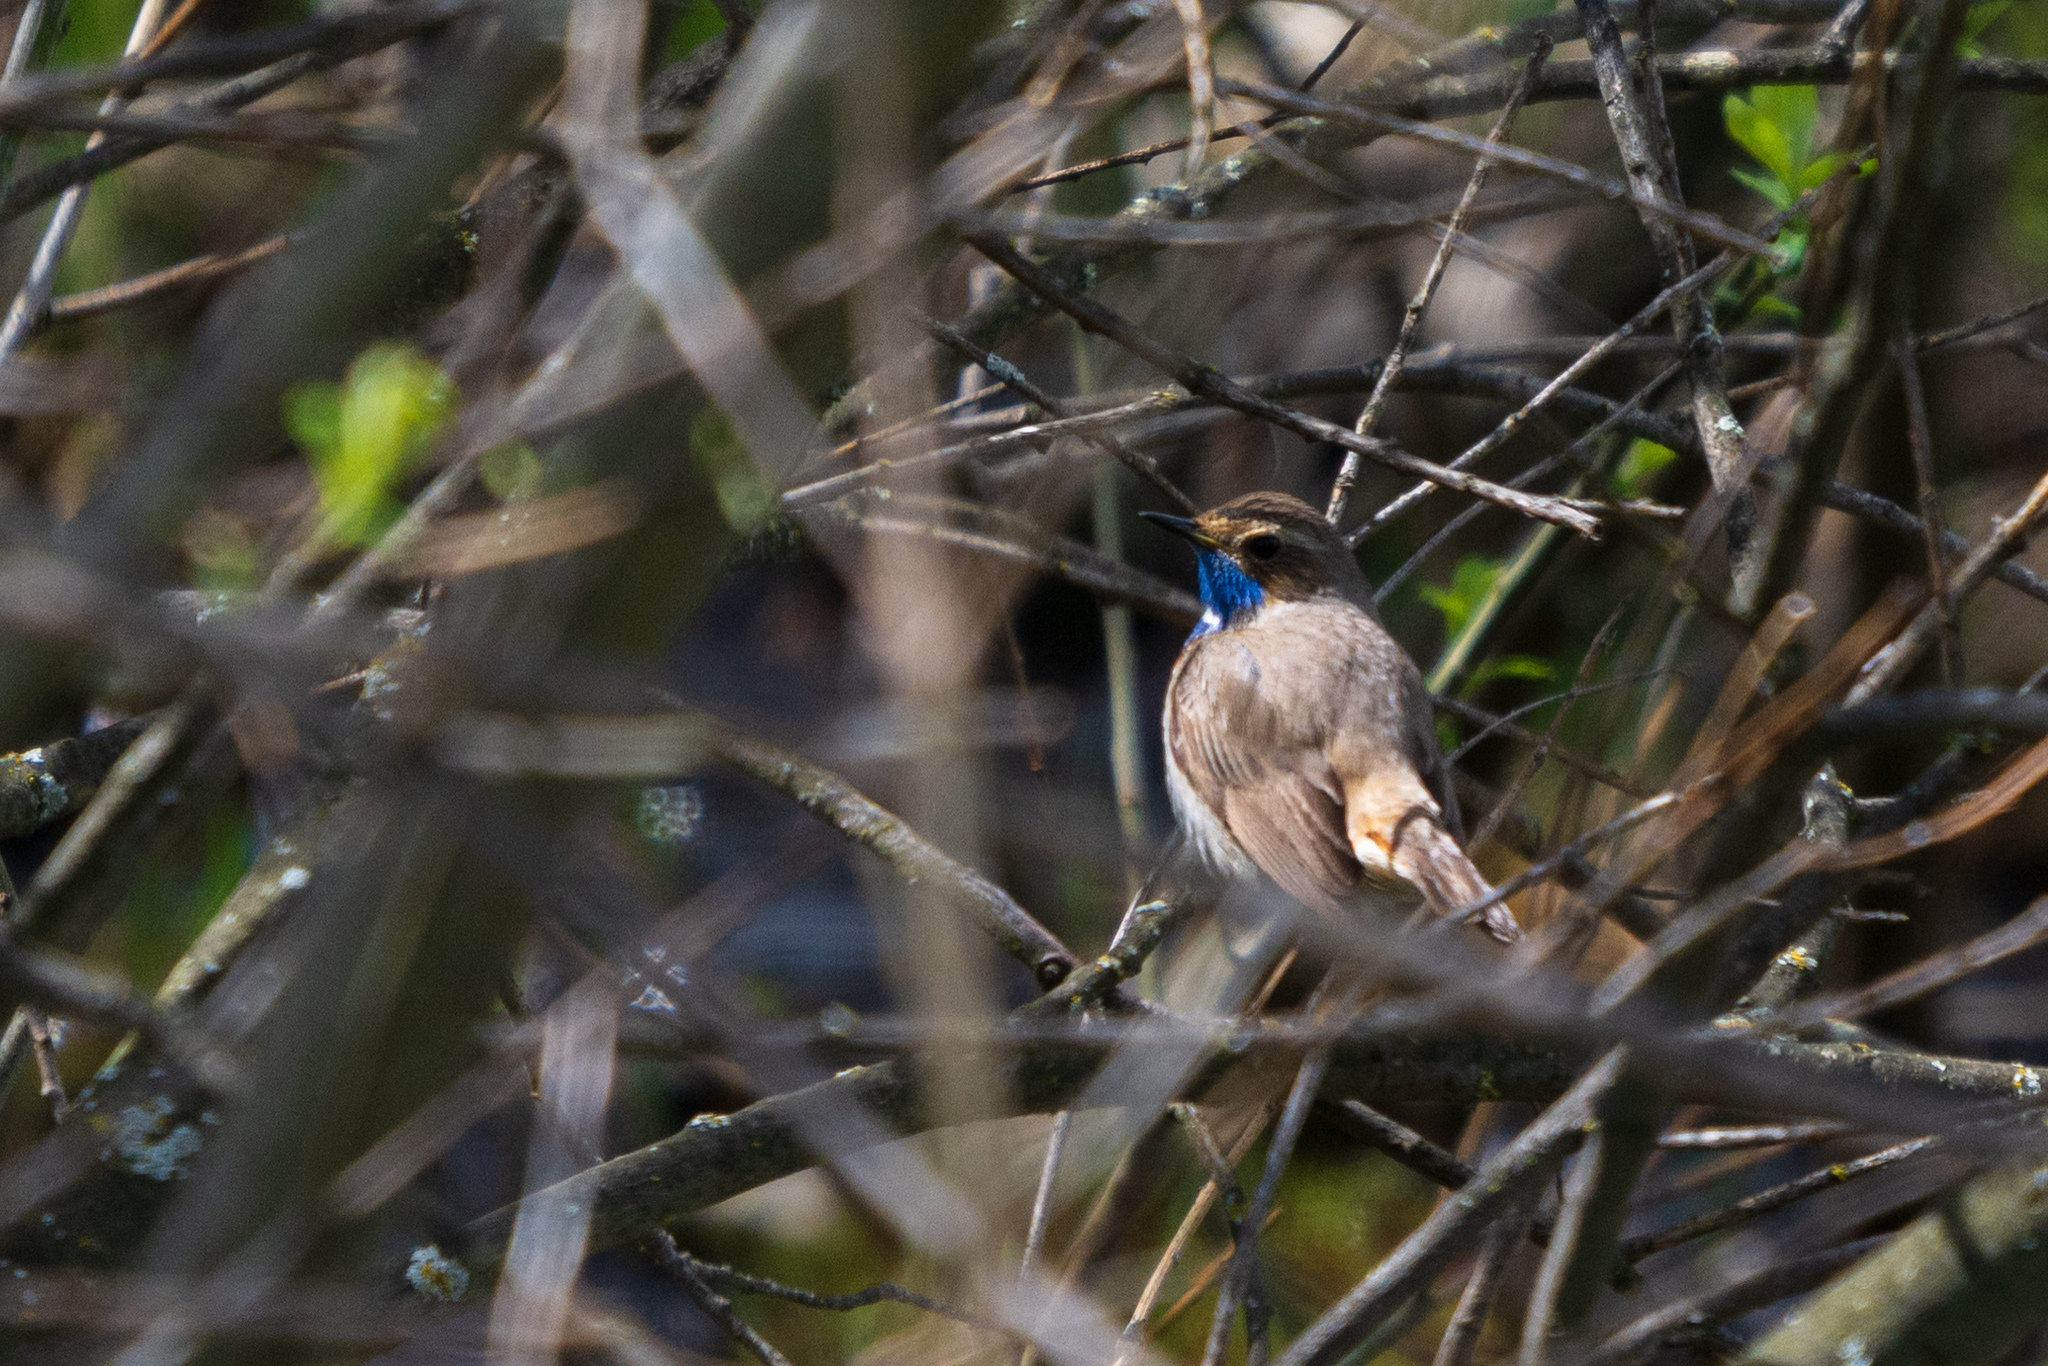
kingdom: Animalia
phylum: Chordata
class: Aves
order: Passeriformes
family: Muscicapidae
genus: Luscinia
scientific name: Luscinia svecica
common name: Bluethroat
